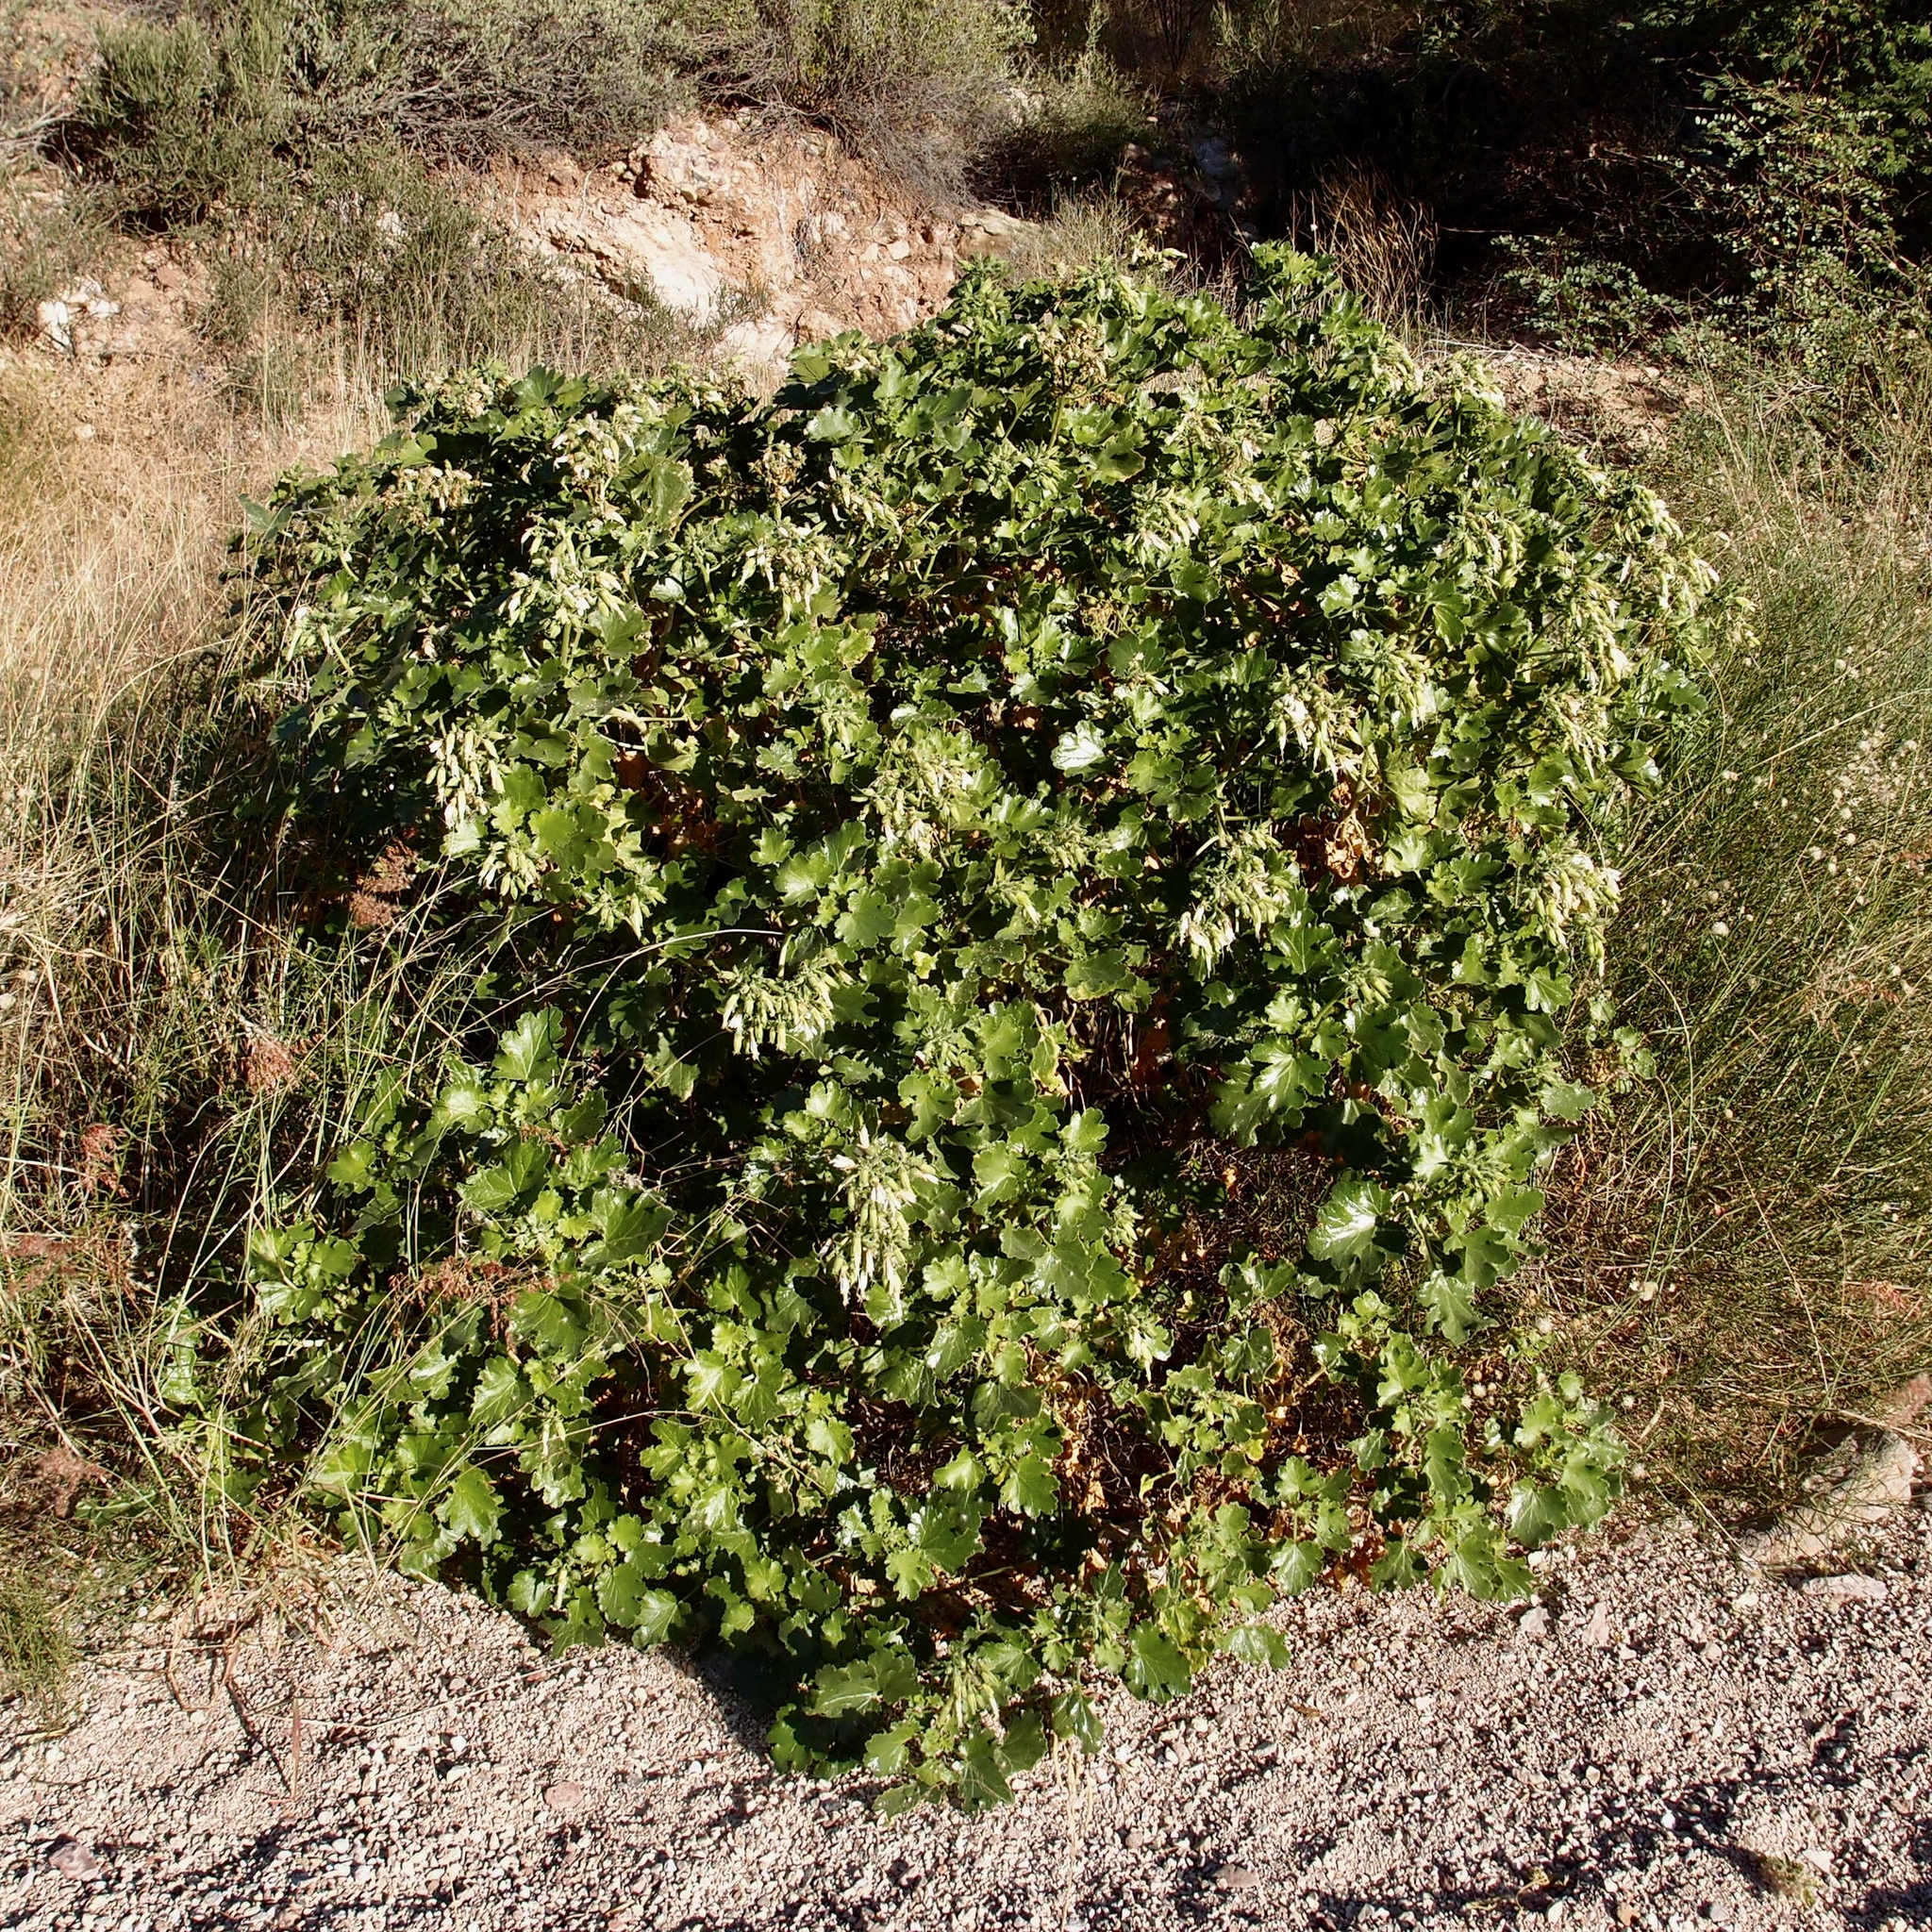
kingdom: Plantae
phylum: Tracheophyta
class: Magnoliopsida
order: Cornales
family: Loasaceae
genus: Eucnide
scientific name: Eucnide cordata
